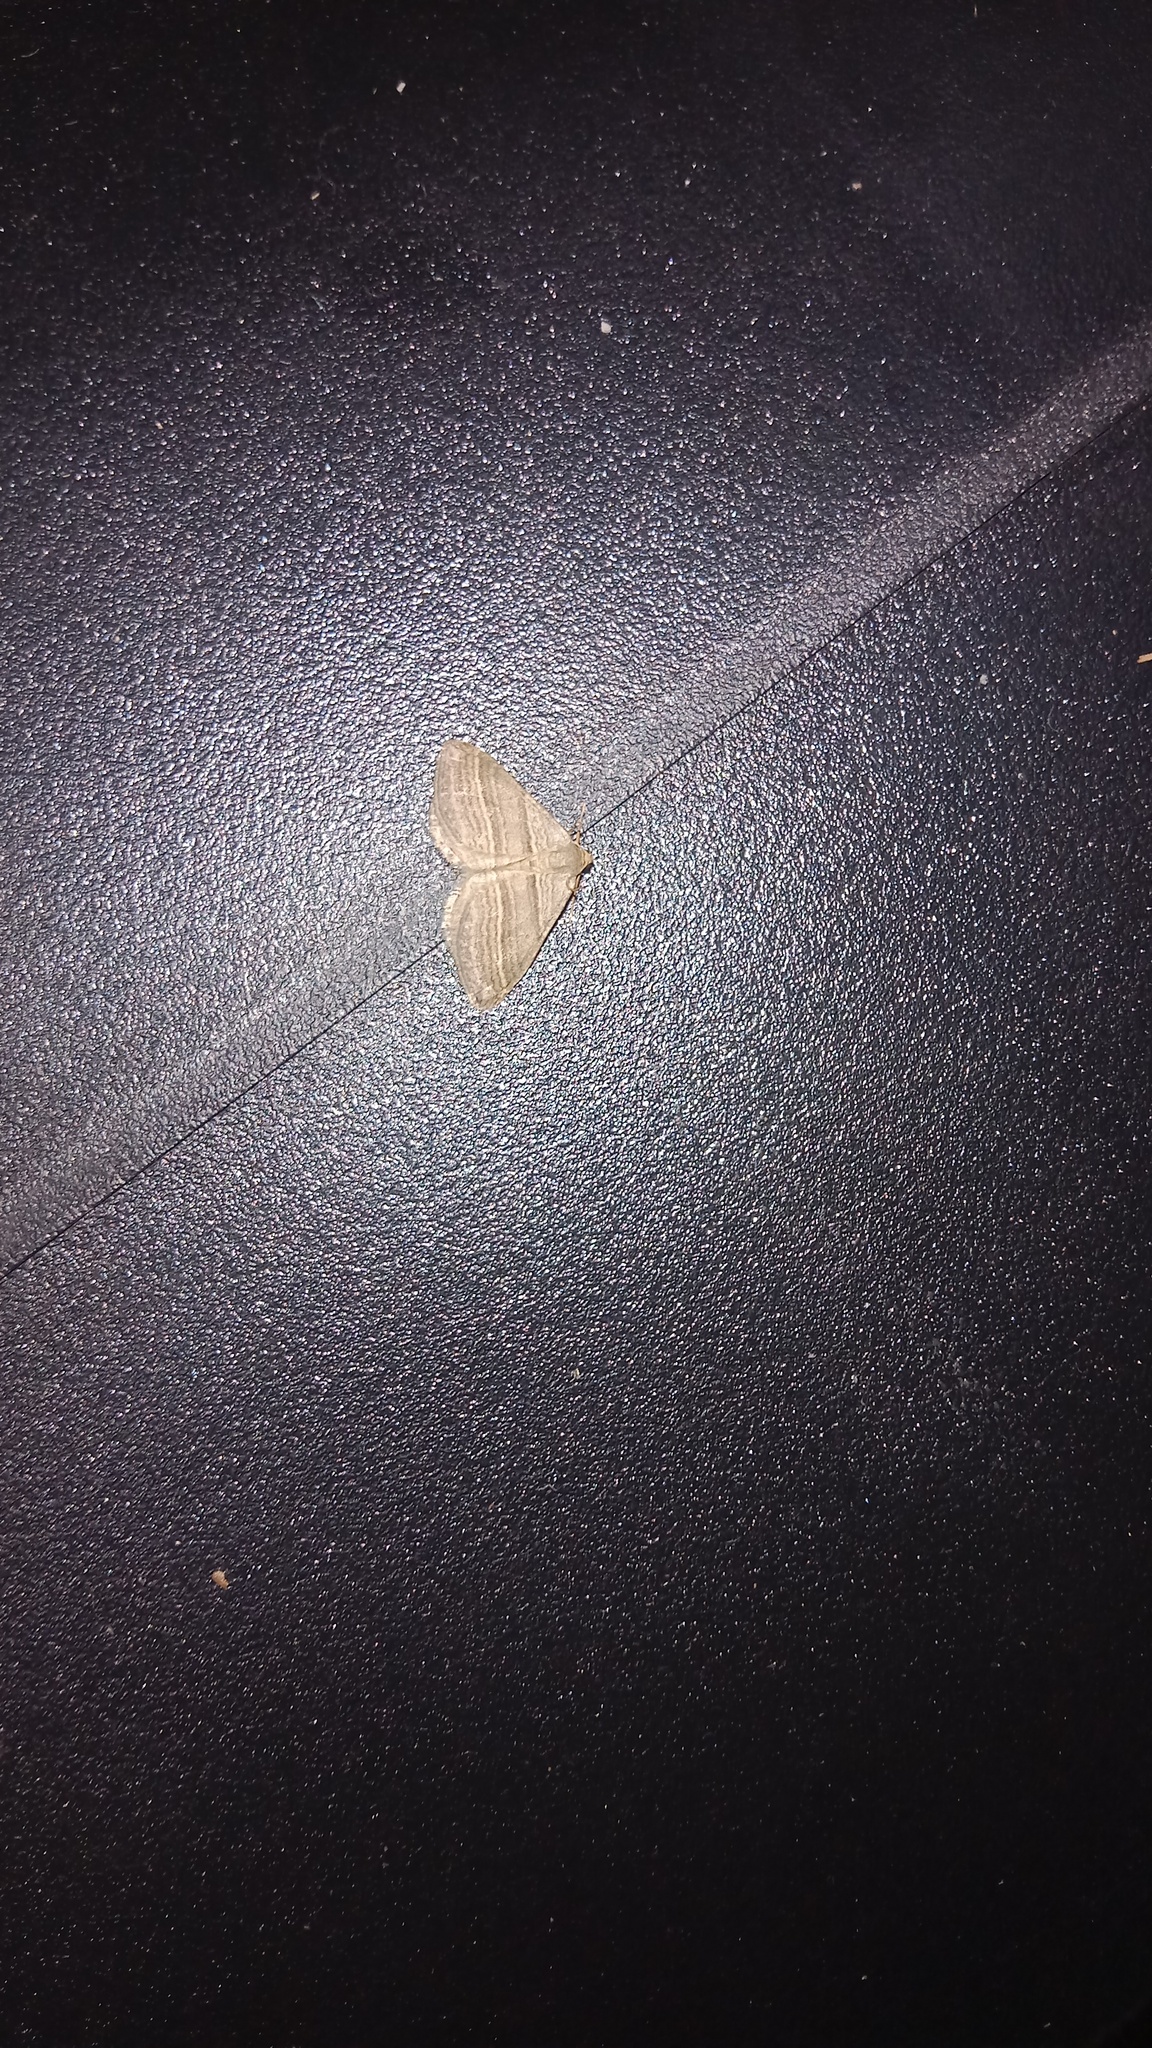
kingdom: Animalia
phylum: Arthropoda
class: Insecta
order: Lepidoptera
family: Geometridae
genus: Phibalapteryx
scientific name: Phibalapteryx virgata
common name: Oblique striped
